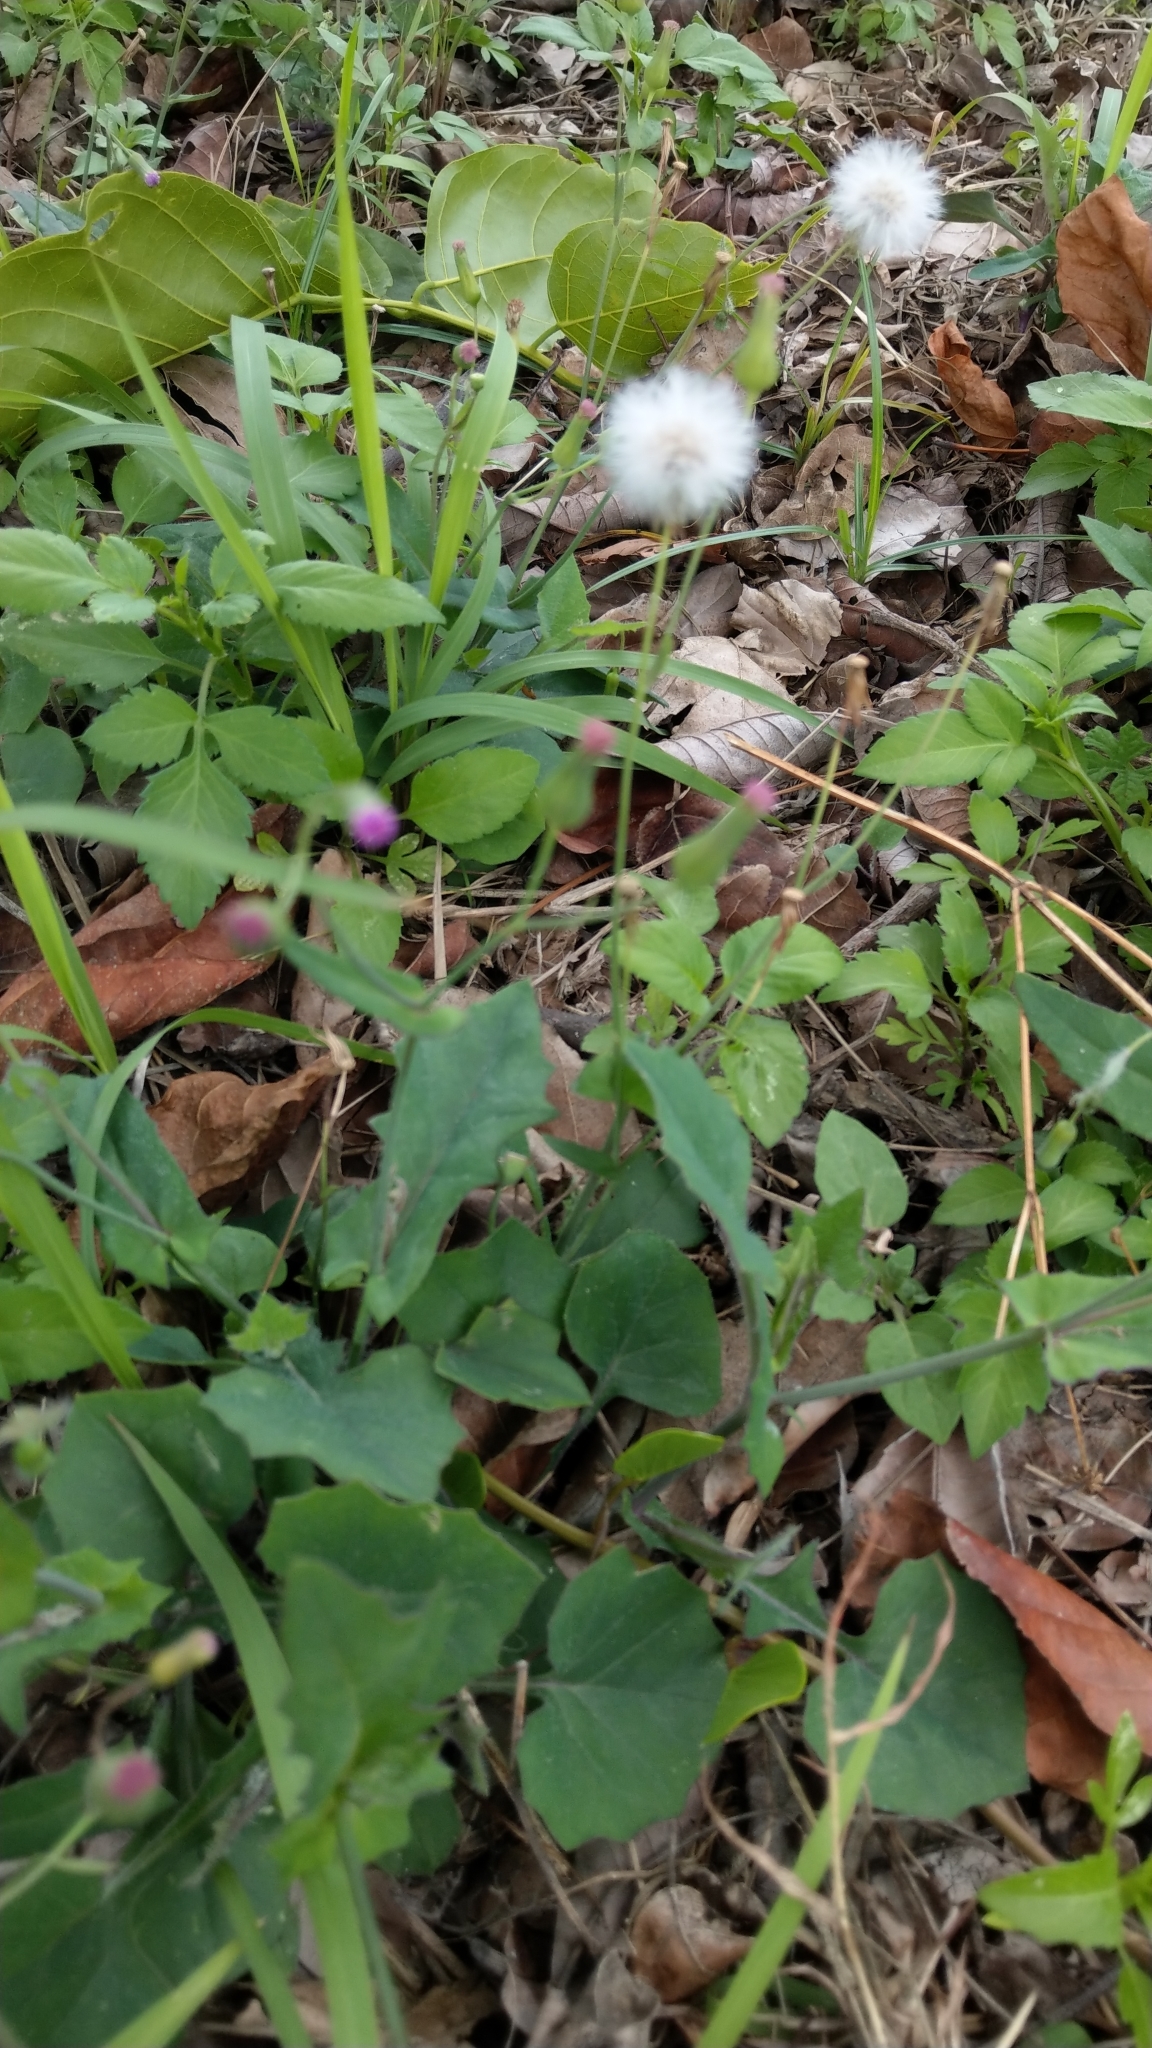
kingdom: Plantae
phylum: Tracheophyta
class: Magnoliopsida
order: Asterales
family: Asteraceae
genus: Emilia
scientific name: Emilia javanica
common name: Tassel-flower
